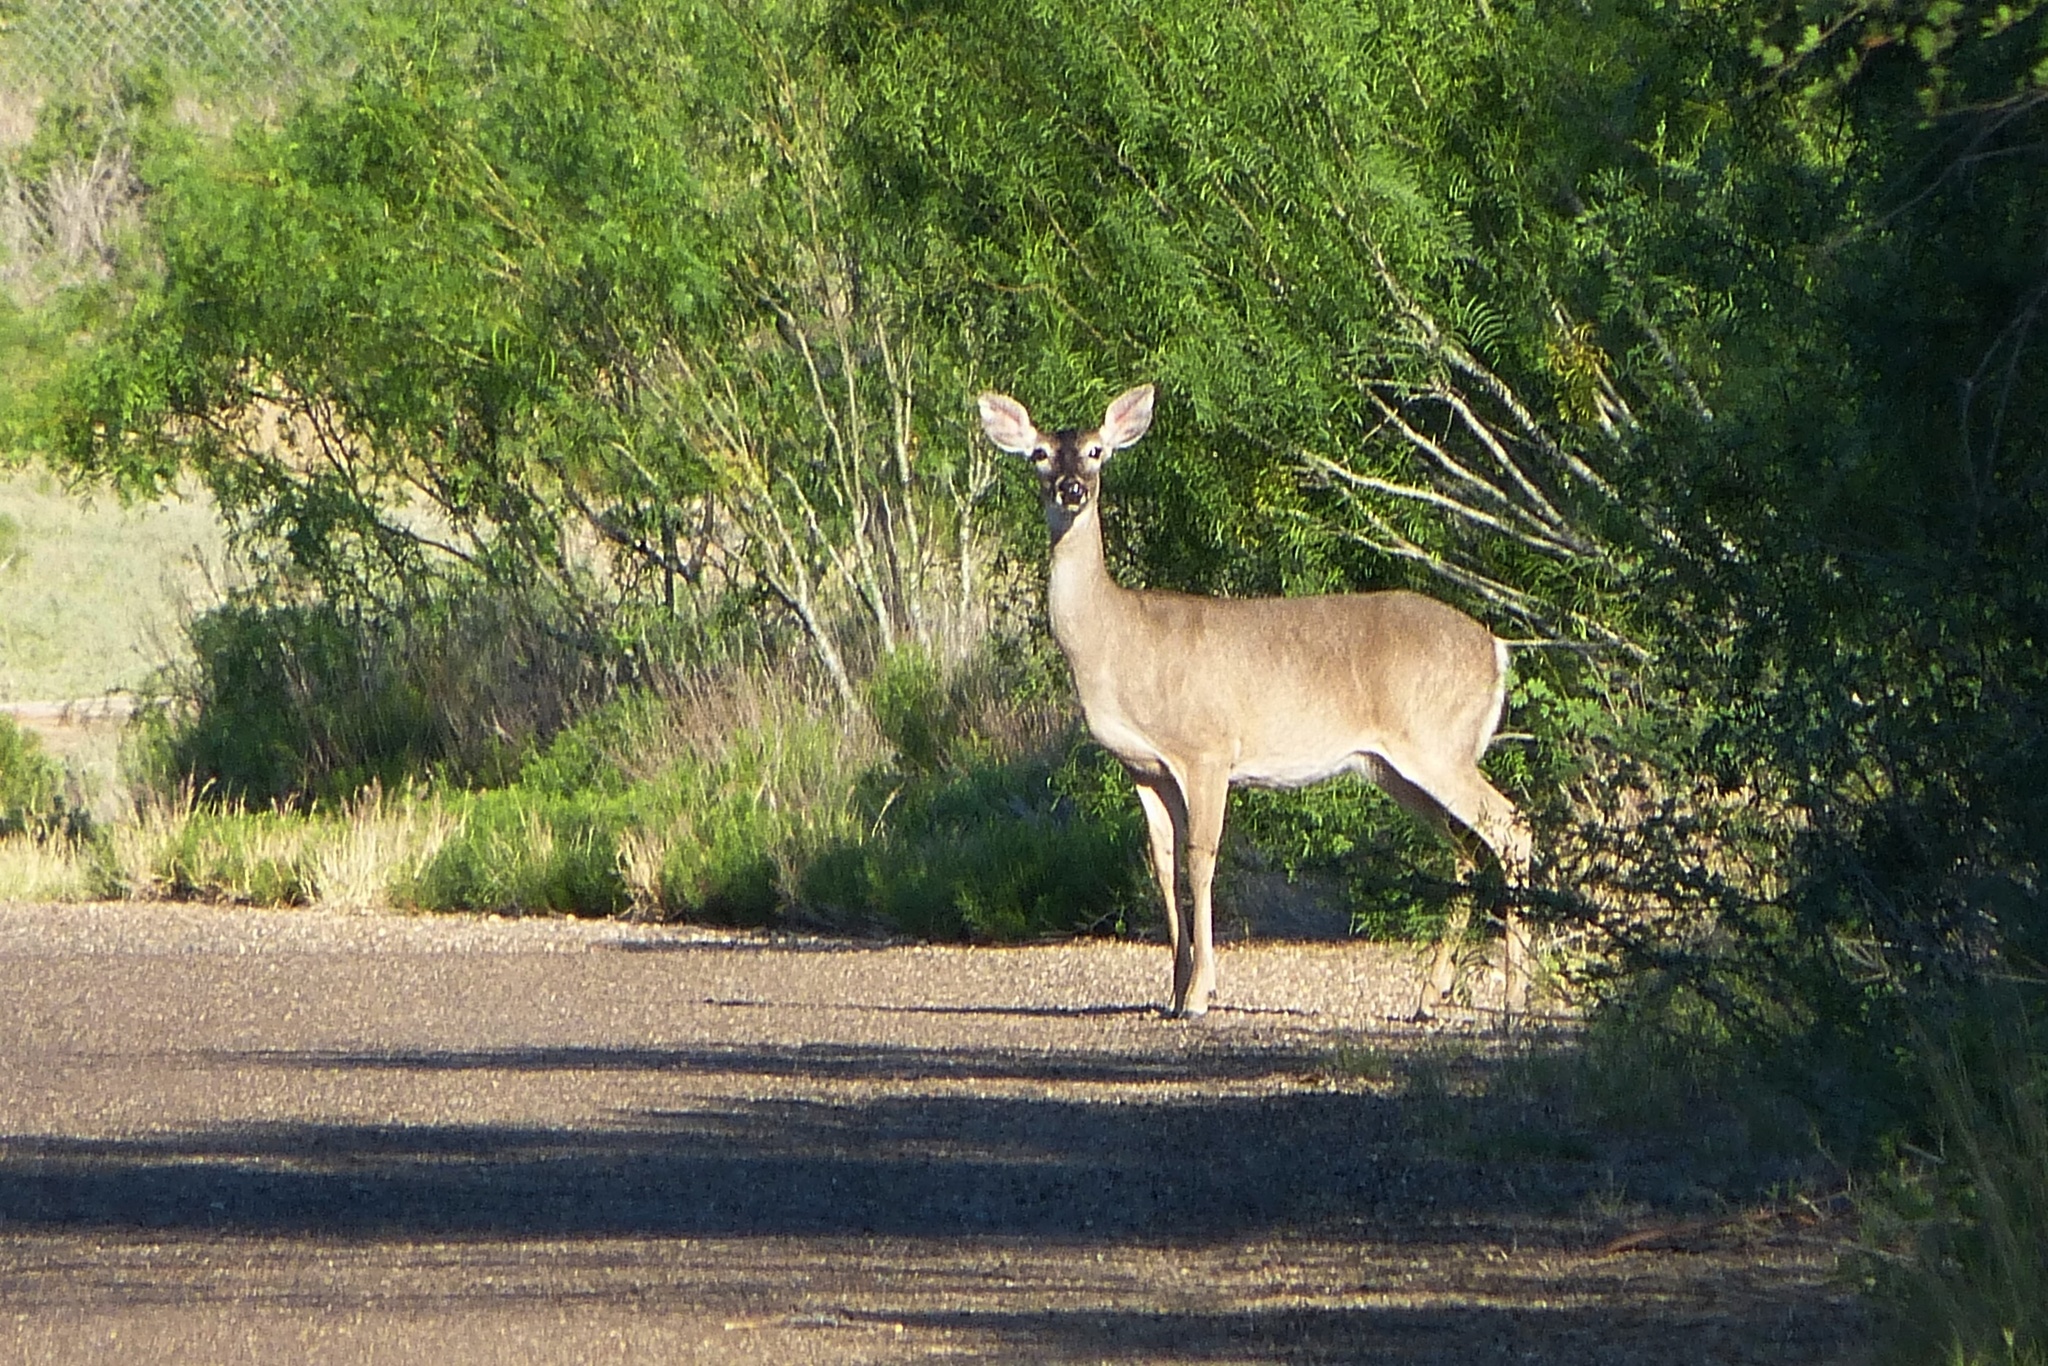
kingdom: Animalia
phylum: Chordata
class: Mammalia
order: Artiodactyla
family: Cervidae
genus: Odocoileus
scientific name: Odocoileus virginianus
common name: White-tailed deer
